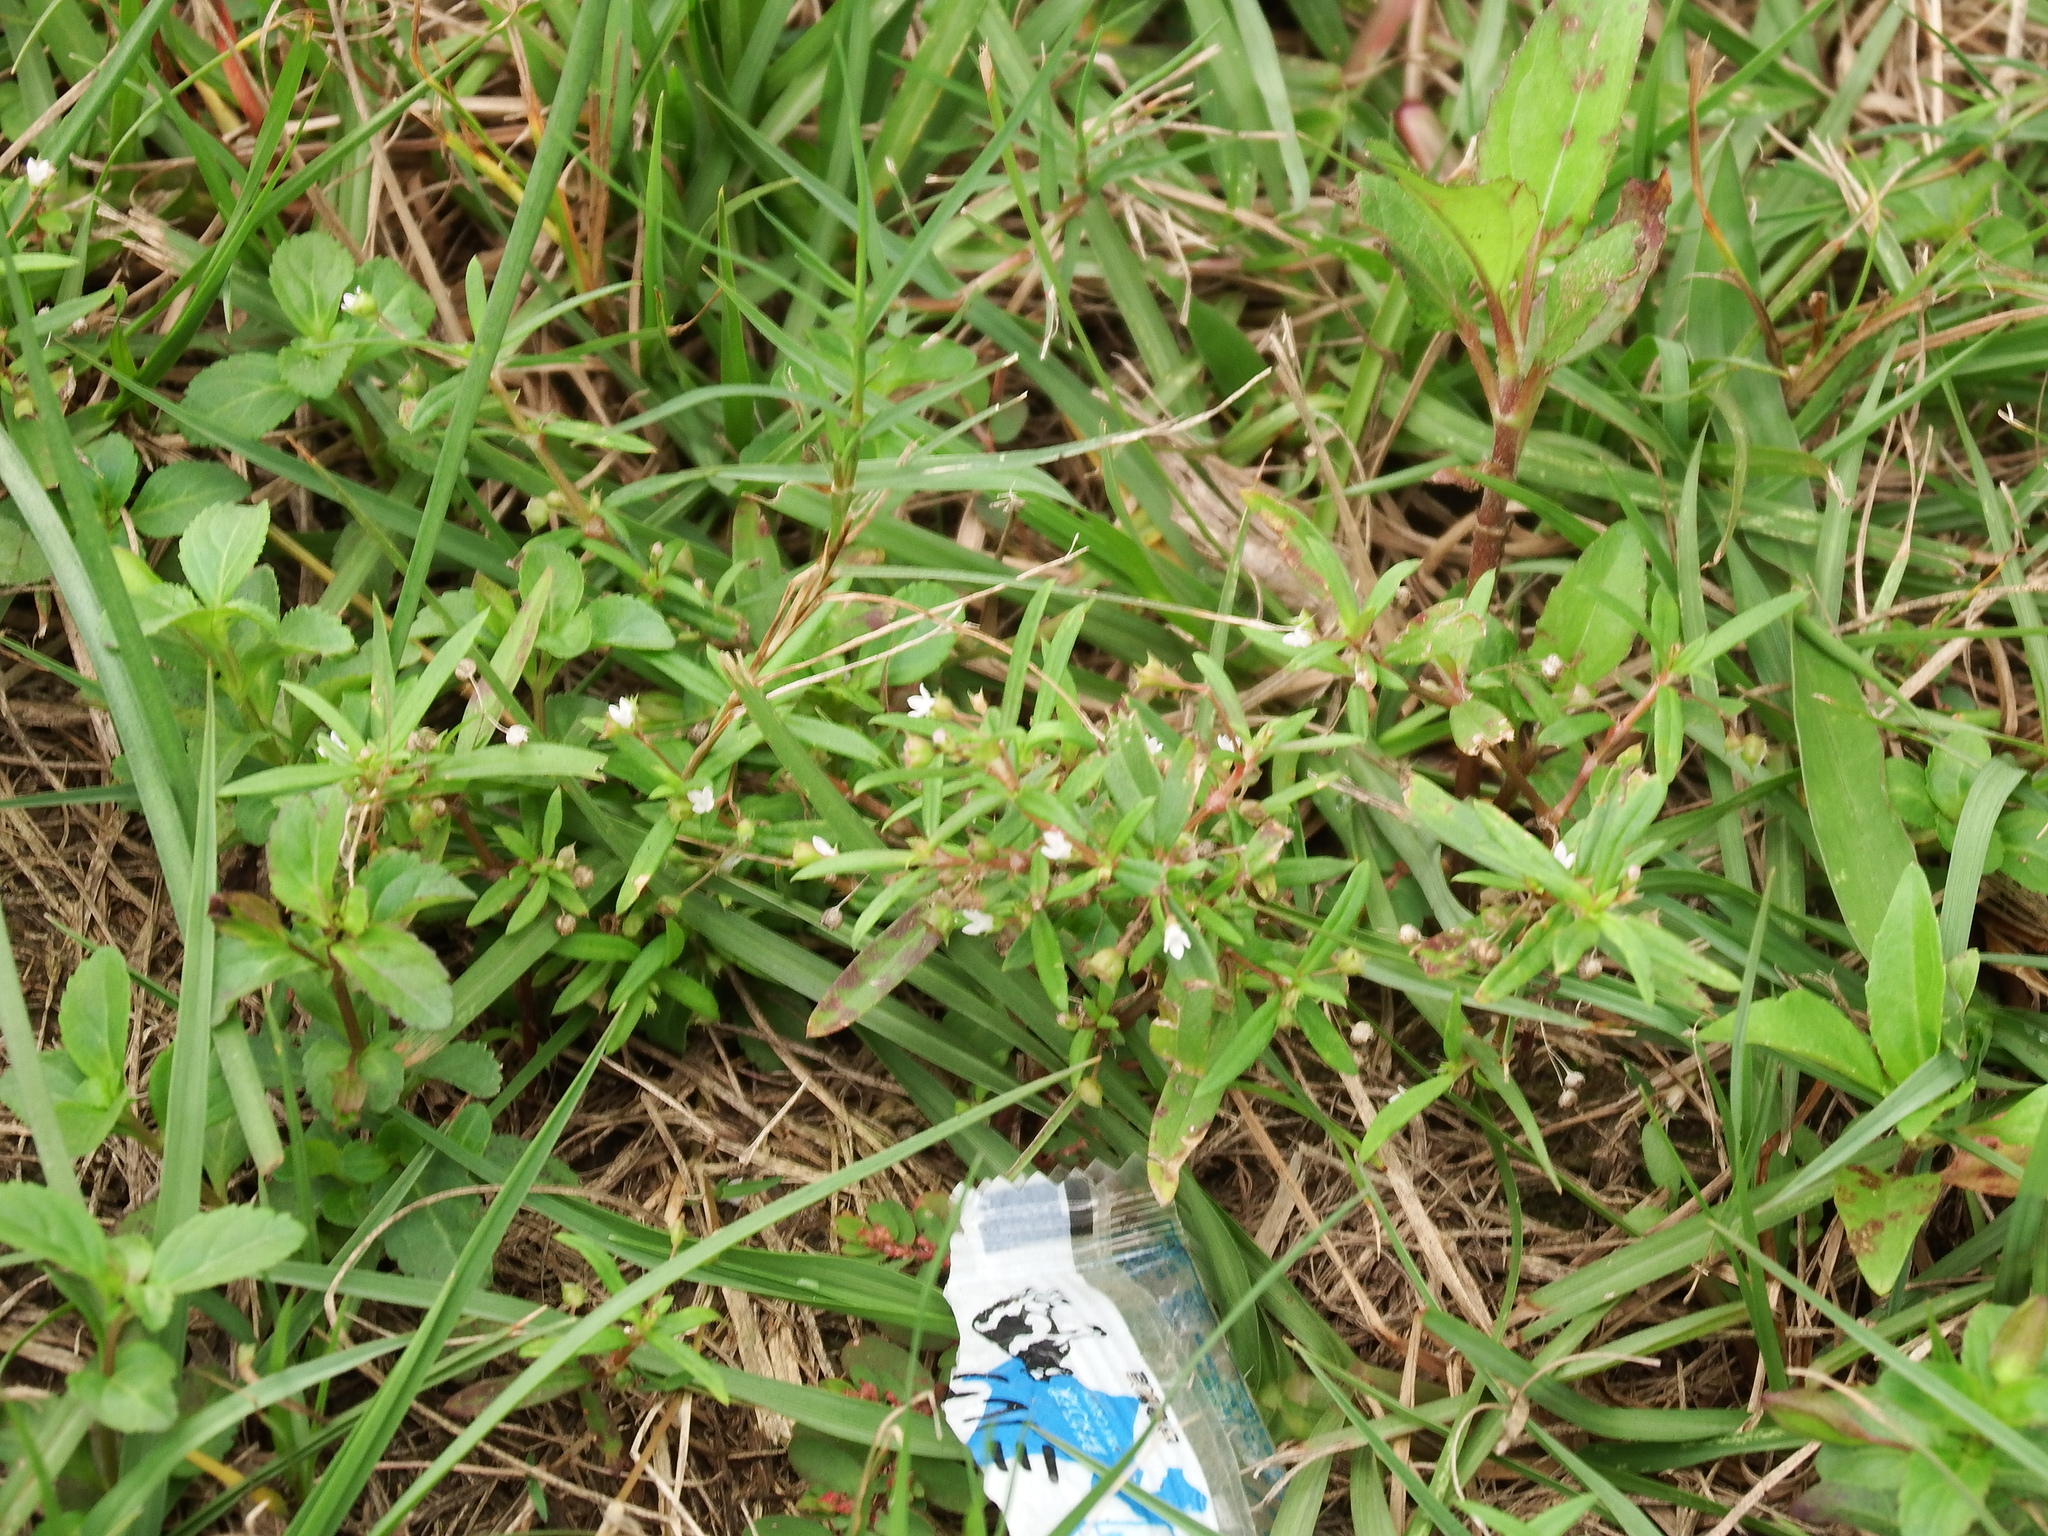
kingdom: Plantae
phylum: Tracheophyta
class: Magnoliopsida
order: Gentianales
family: Rubiaceae
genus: Oldenlandia
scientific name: Oldenlandia corymbosa
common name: Flat-top mille graines
